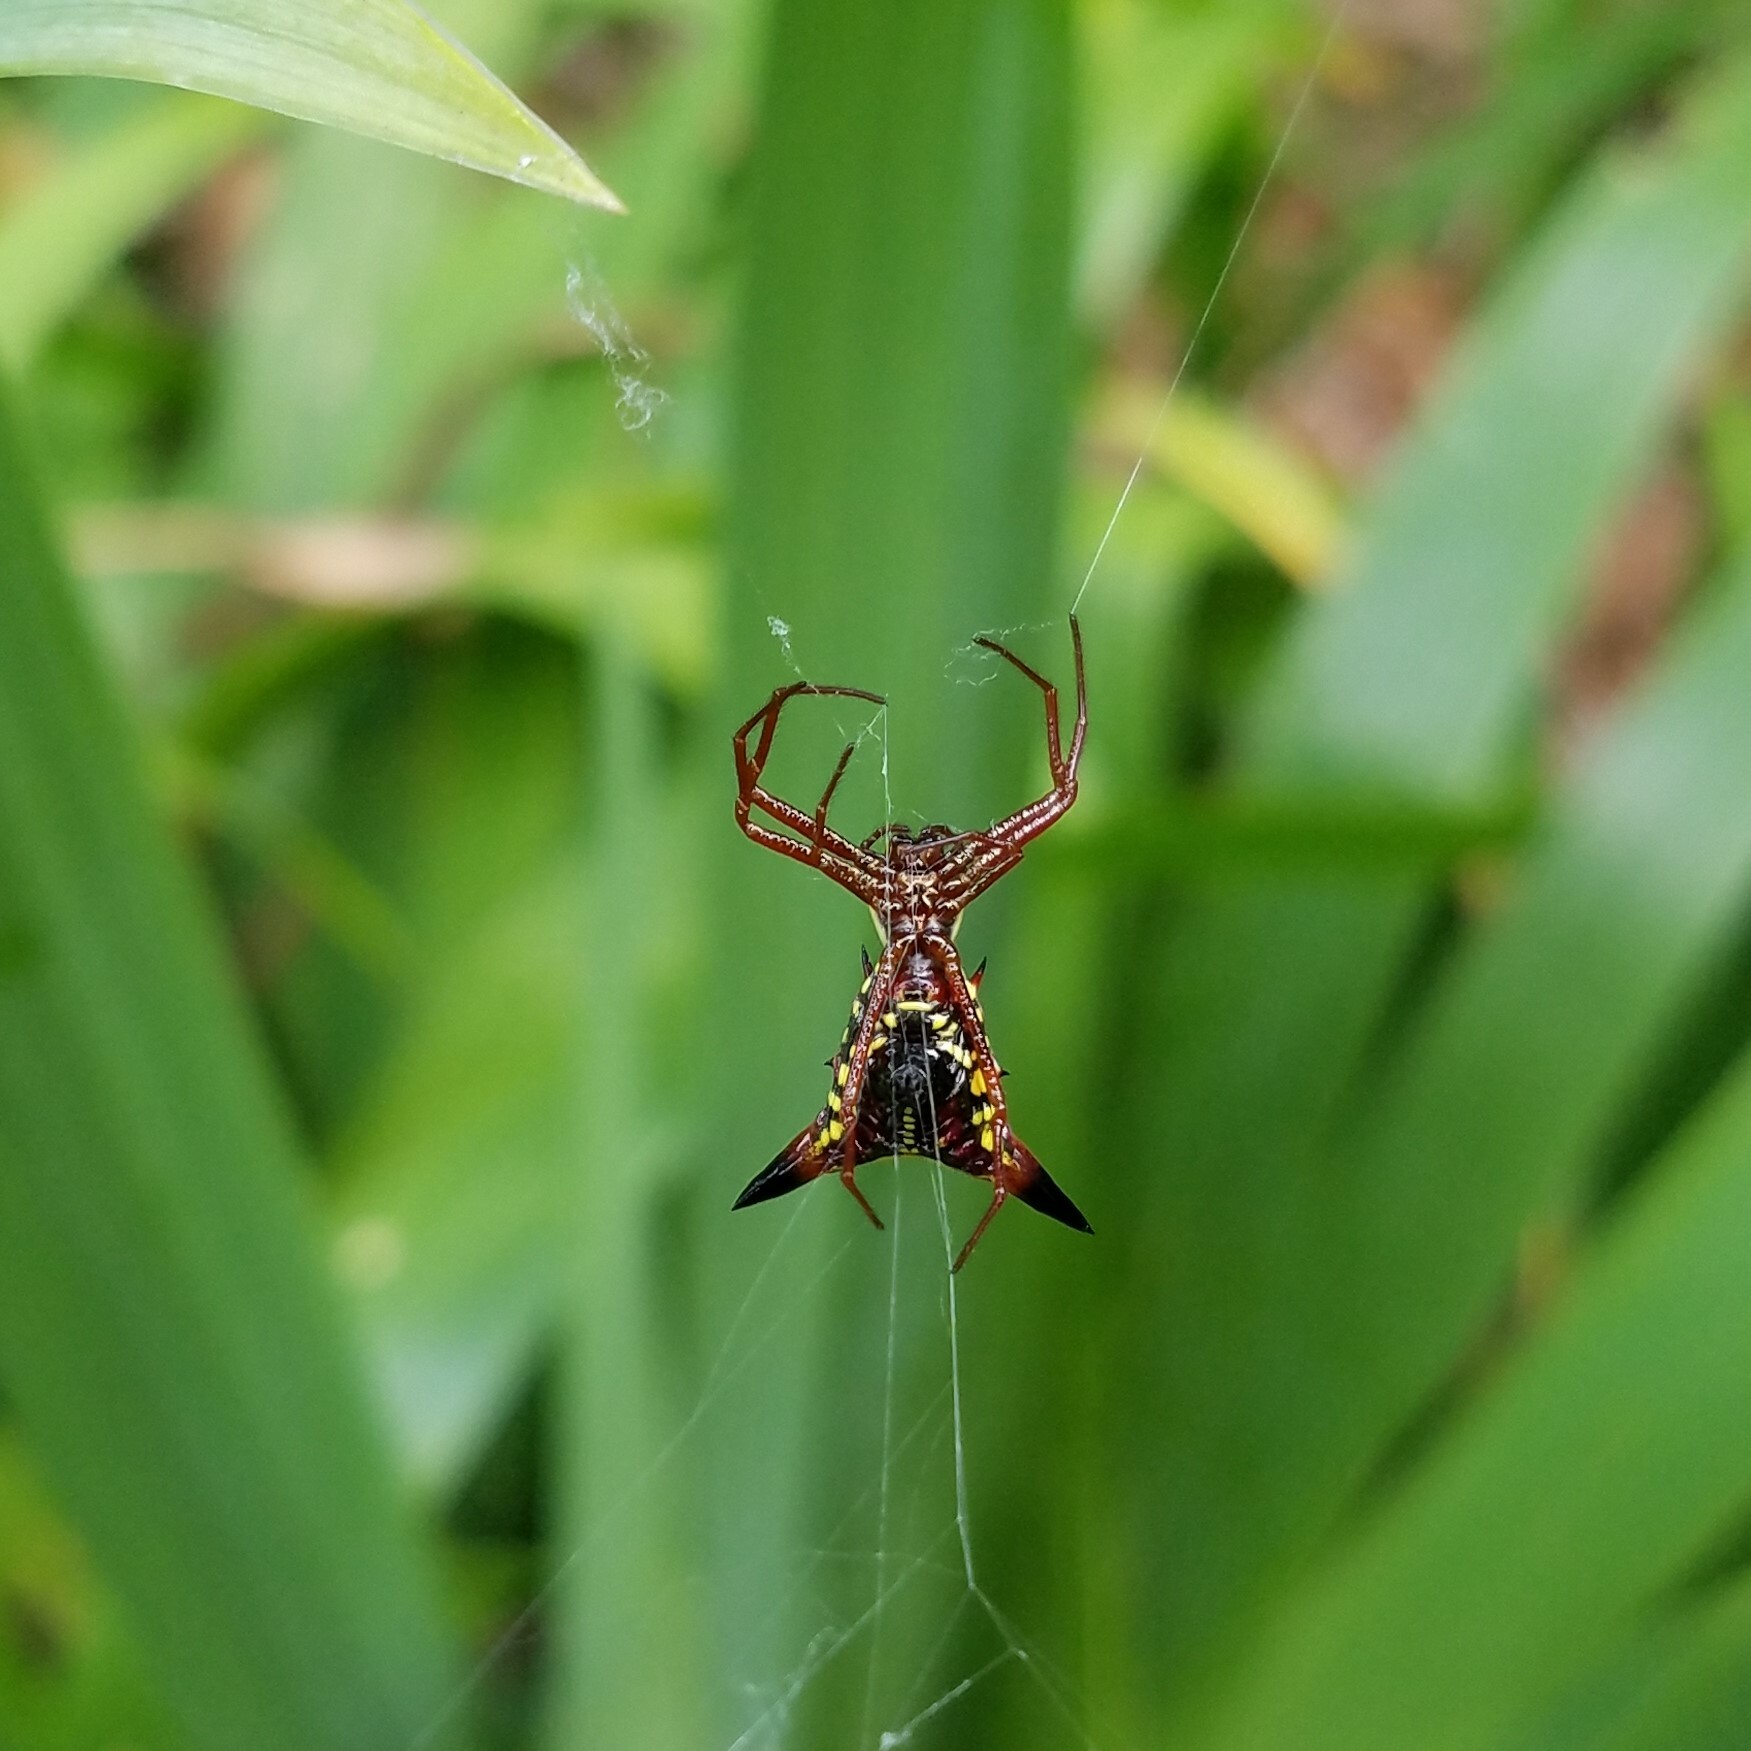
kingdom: Animalia
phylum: Arthropoda
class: Arachnida
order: Araneae
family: Araneidae
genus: Micrathena
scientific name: Micrathena sagittata
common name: Orb weavers
